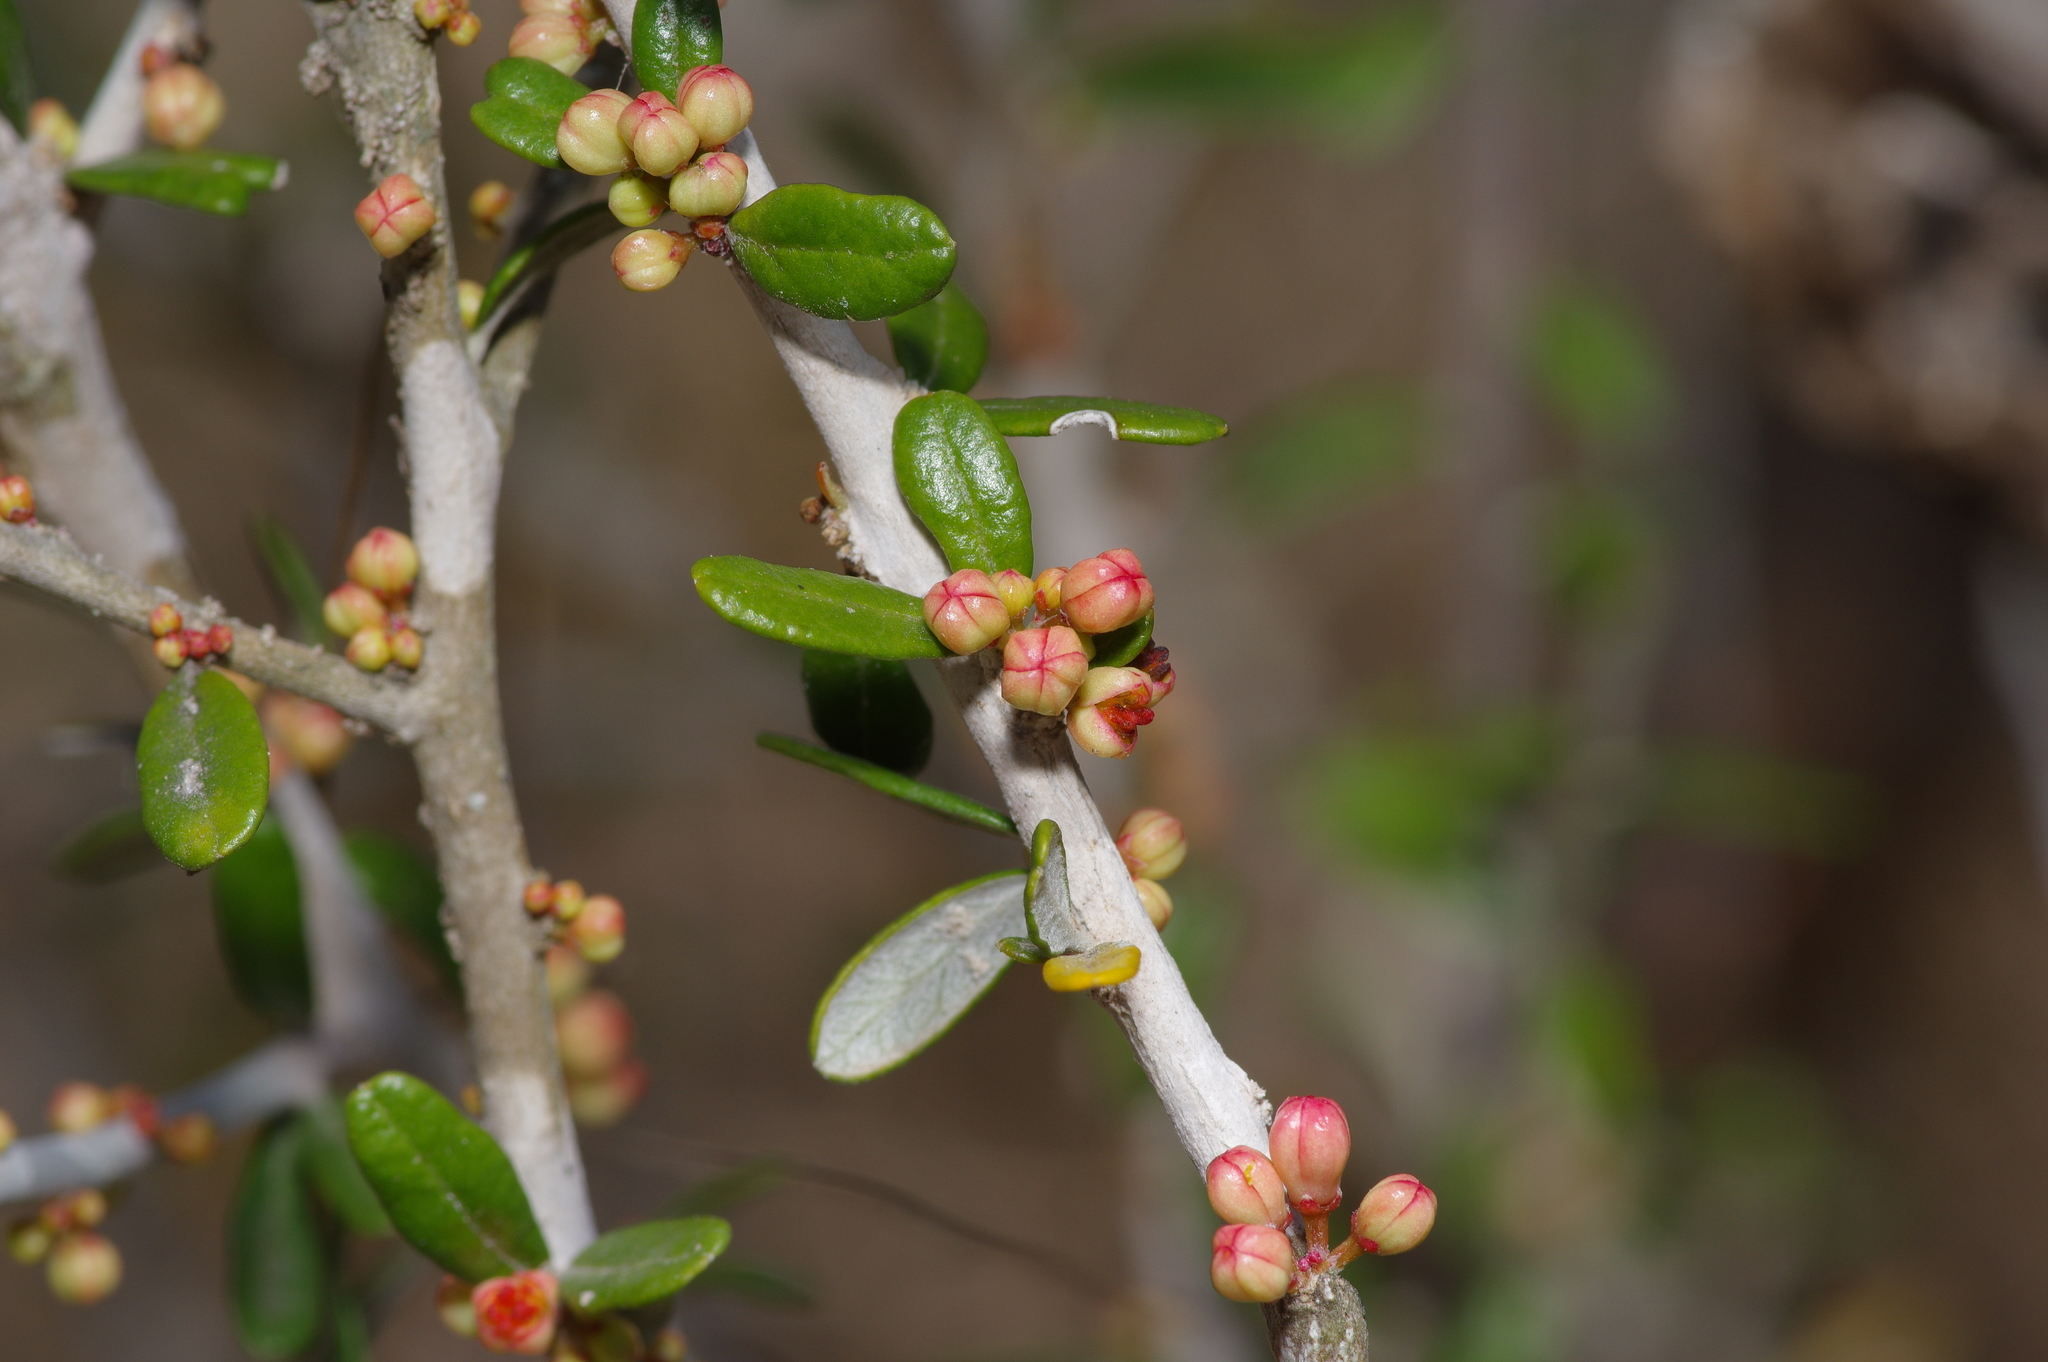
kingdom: Plantae
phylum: Tracheophyta
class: Magnoliopsida
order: Sapindales
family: Simaroubaceae
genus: Castela
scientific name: Castela erecta
